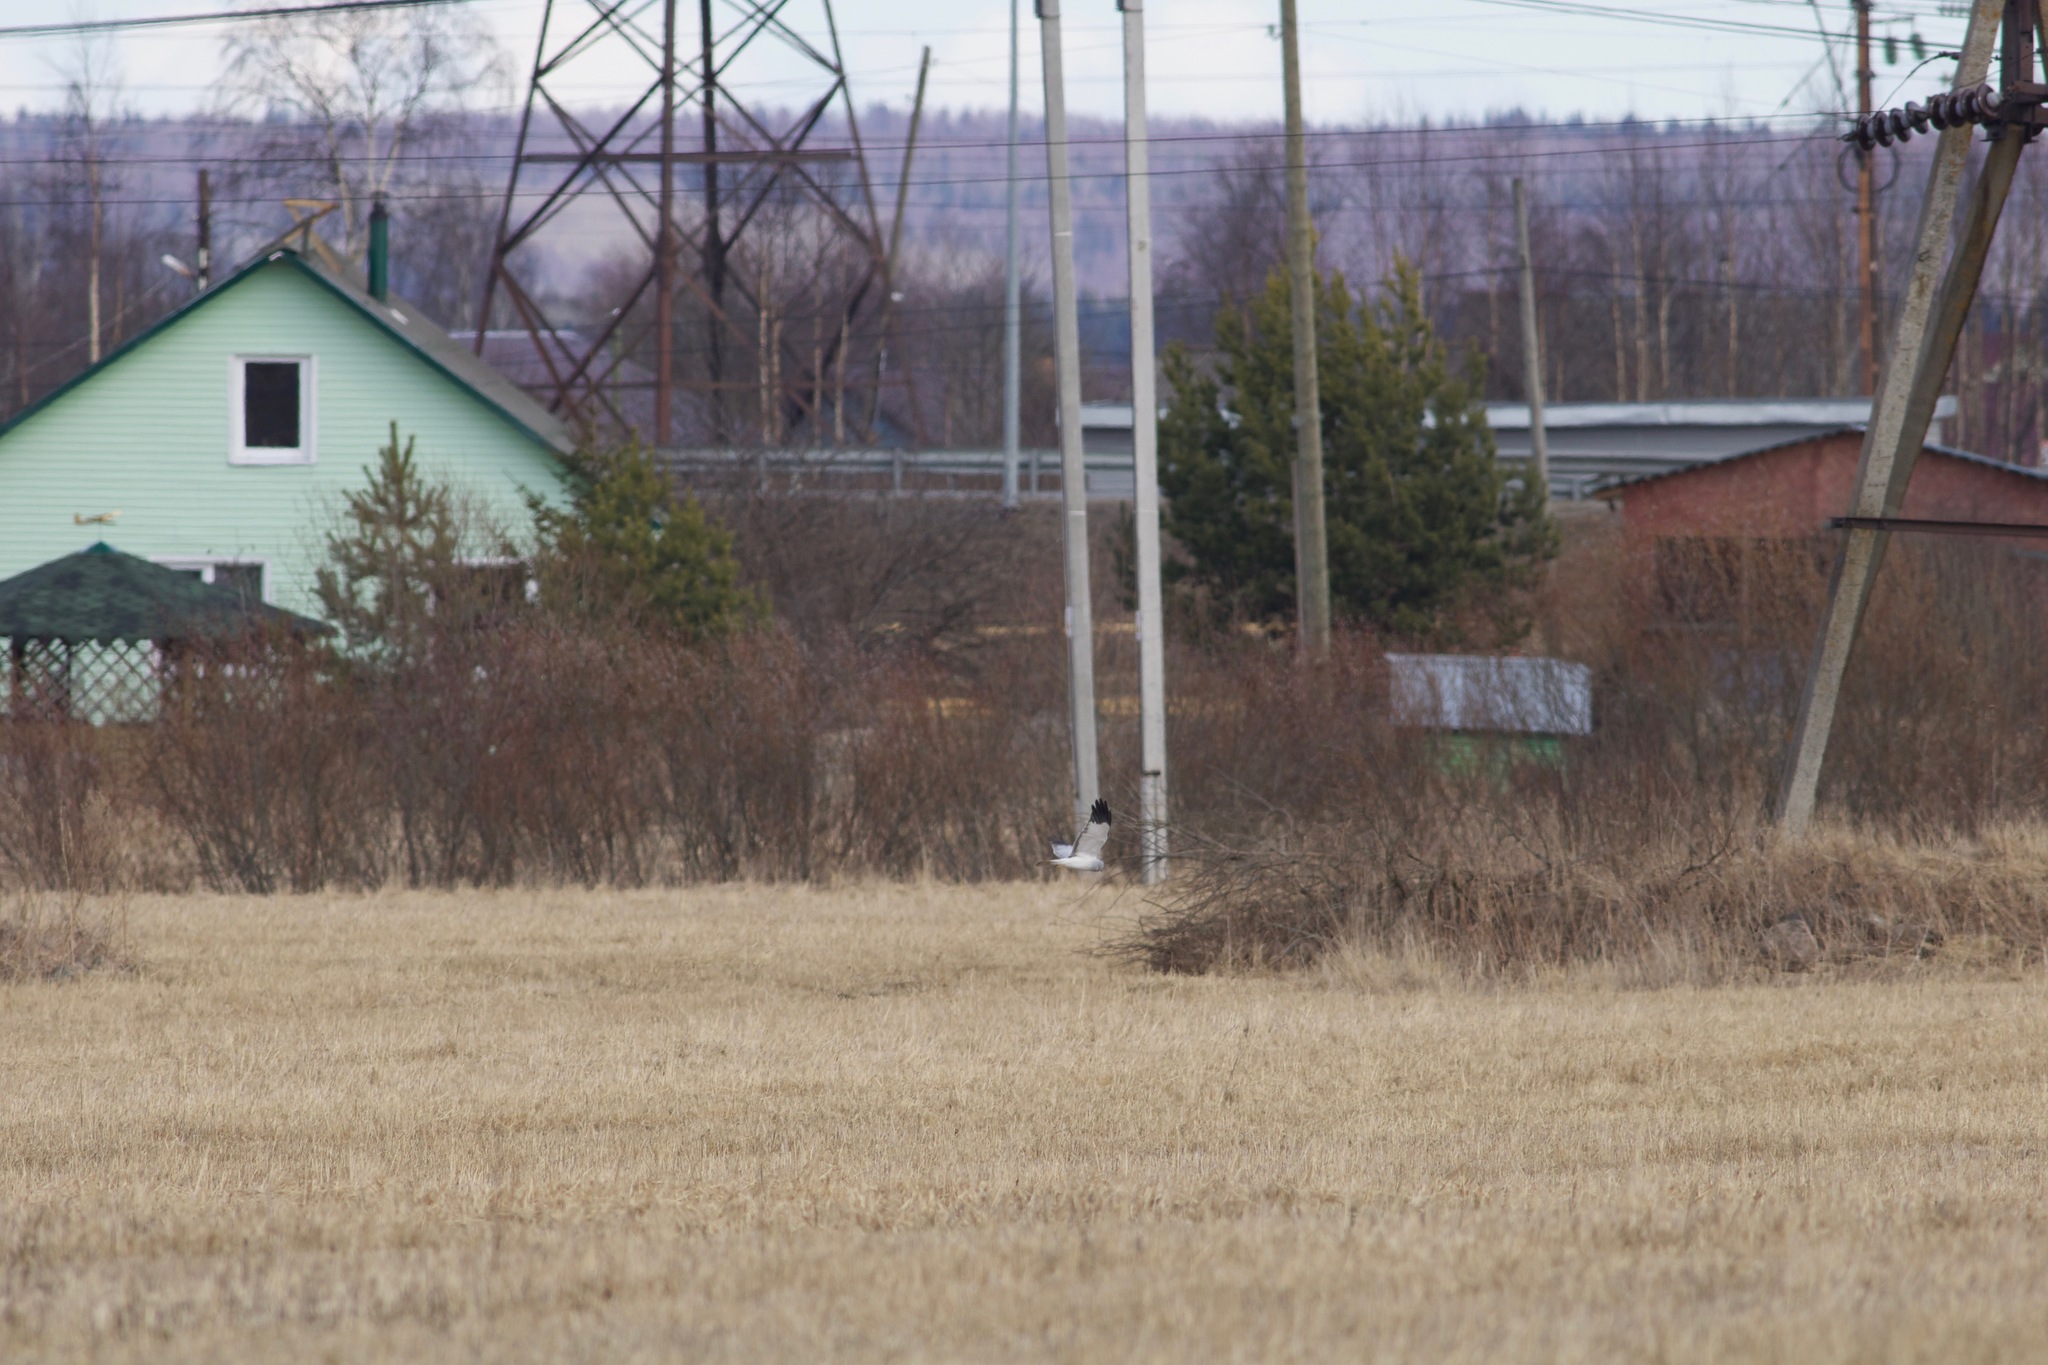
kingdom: Animalia
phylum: Chordata
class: Aves
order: Accipitriformes
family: Accipitridae
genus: Circus
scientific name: Circus cyaneus
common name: Hen harrier
